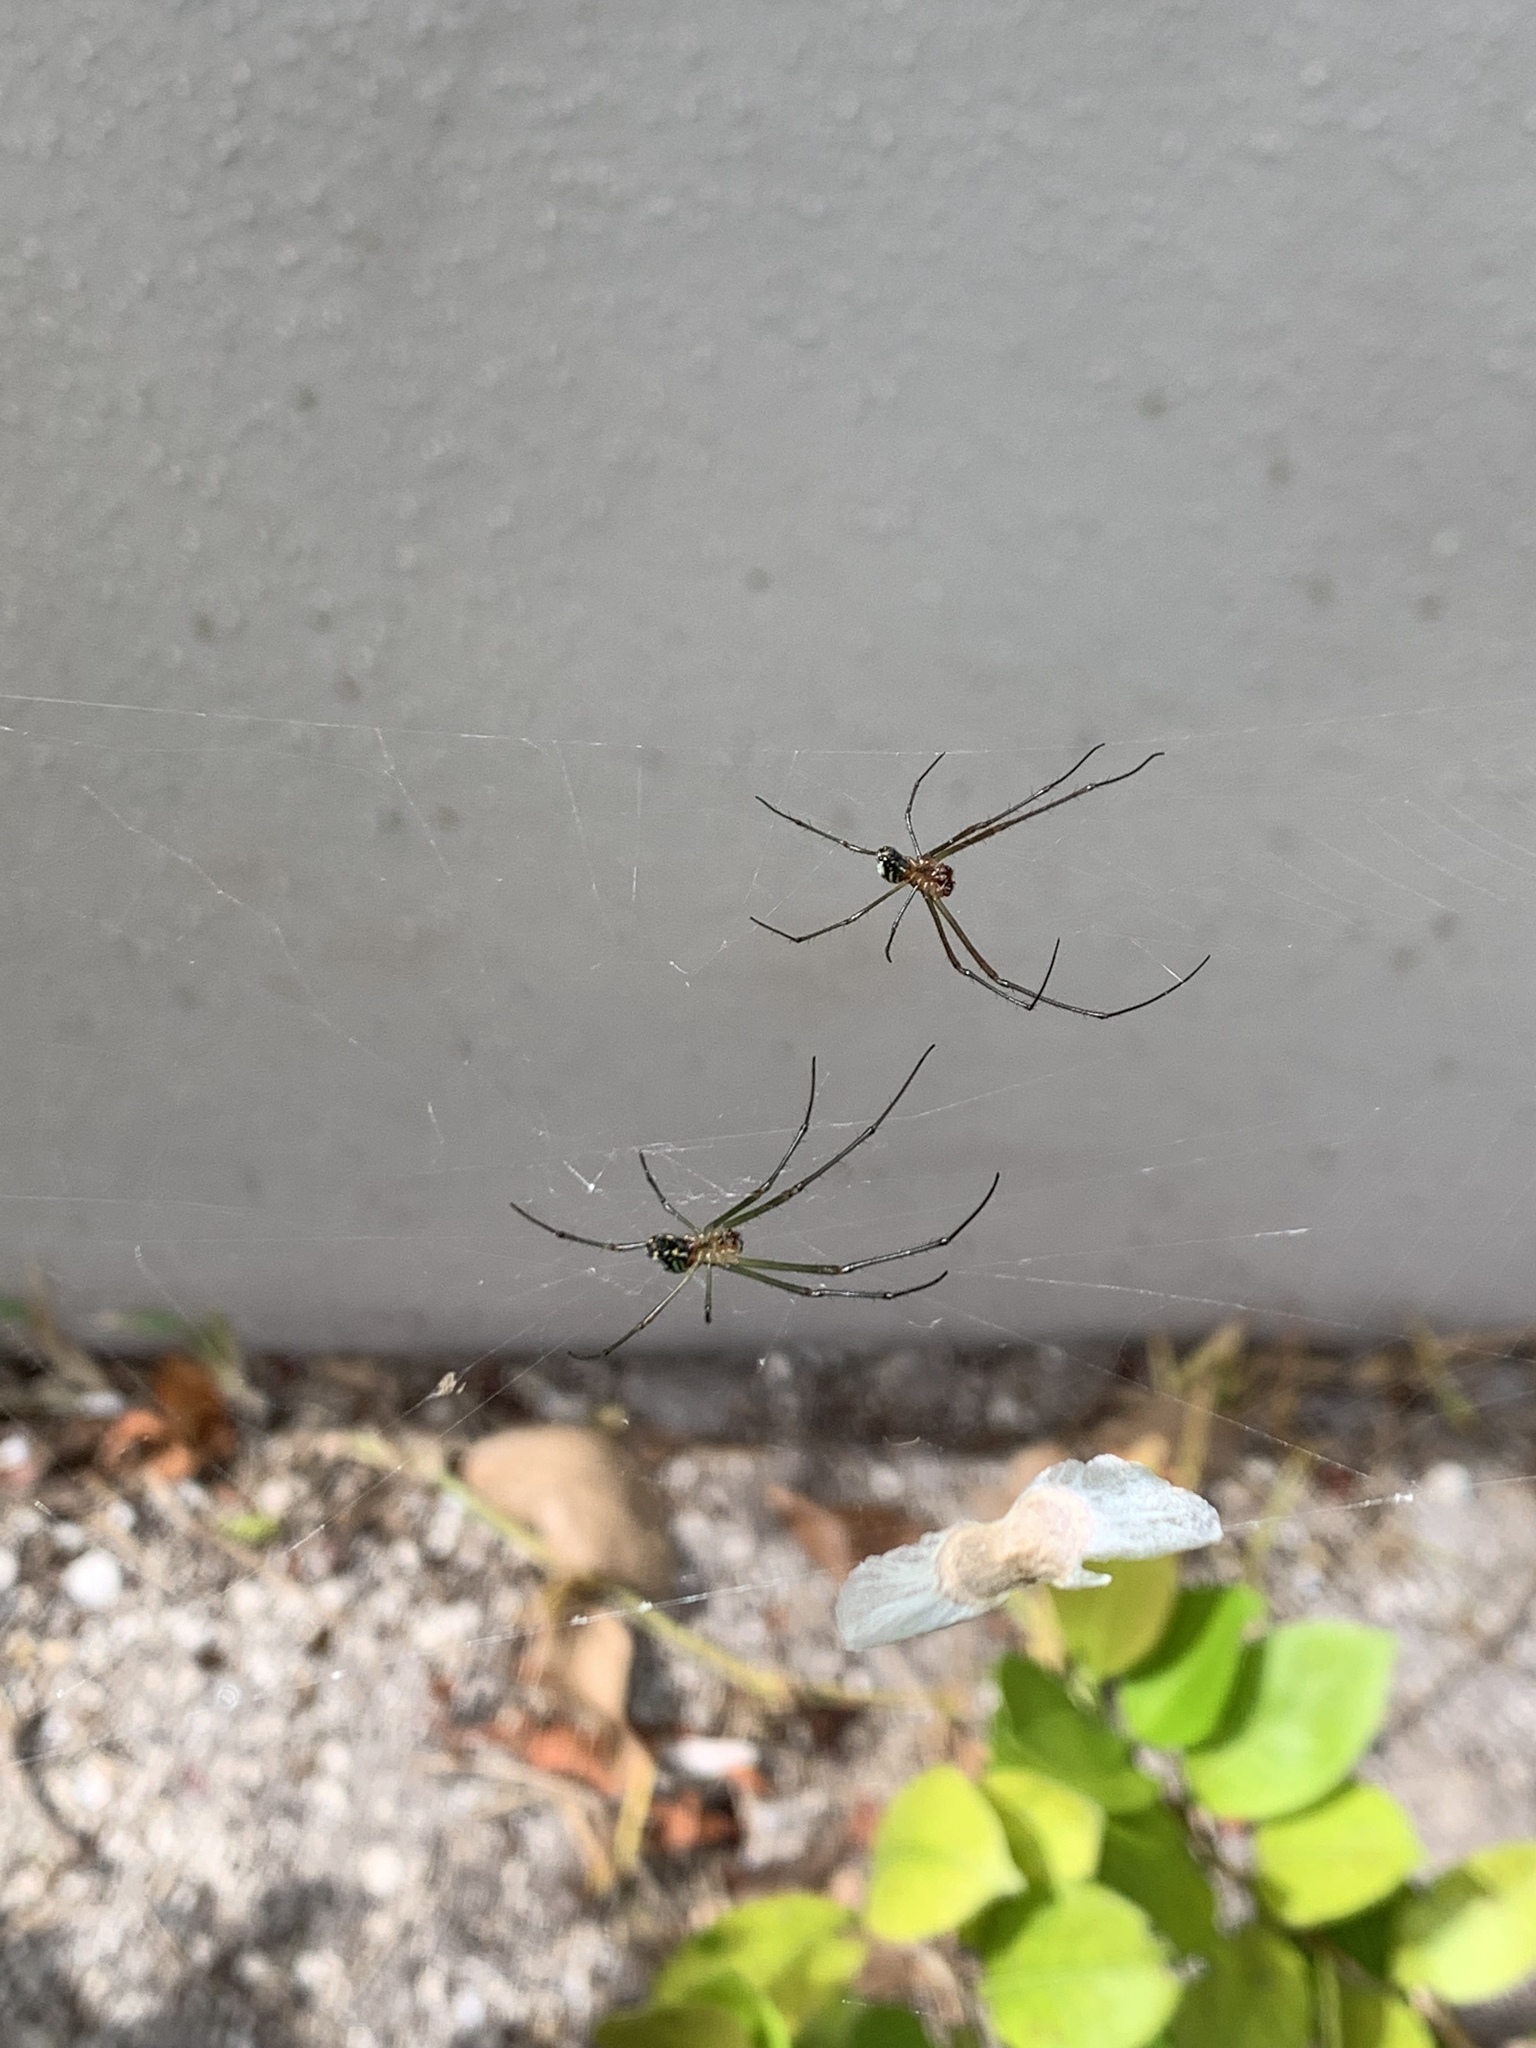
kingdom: Animalia
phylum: Arthropoda
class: Arachnida
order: Araneae
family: Tetragnathidae
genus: Leucauge
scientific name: Leucauge argyra
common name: Longjawed orb weavers
